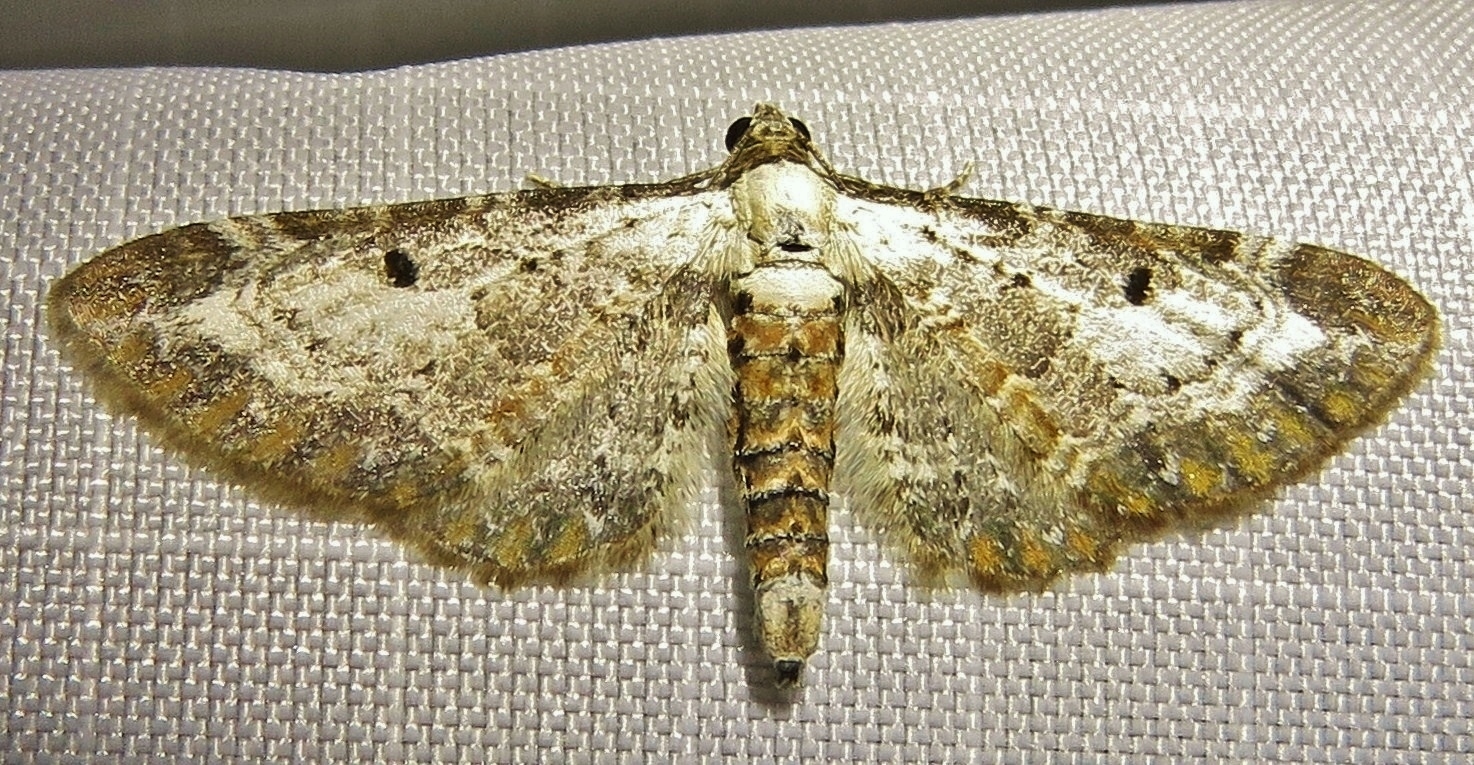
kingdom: Animalia
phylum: Arthropoda
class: Insecta
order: Lepidoptera
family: Geometridae
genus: Eupithecia
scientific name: Eupithecia succenturiata
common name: Bordered pug
